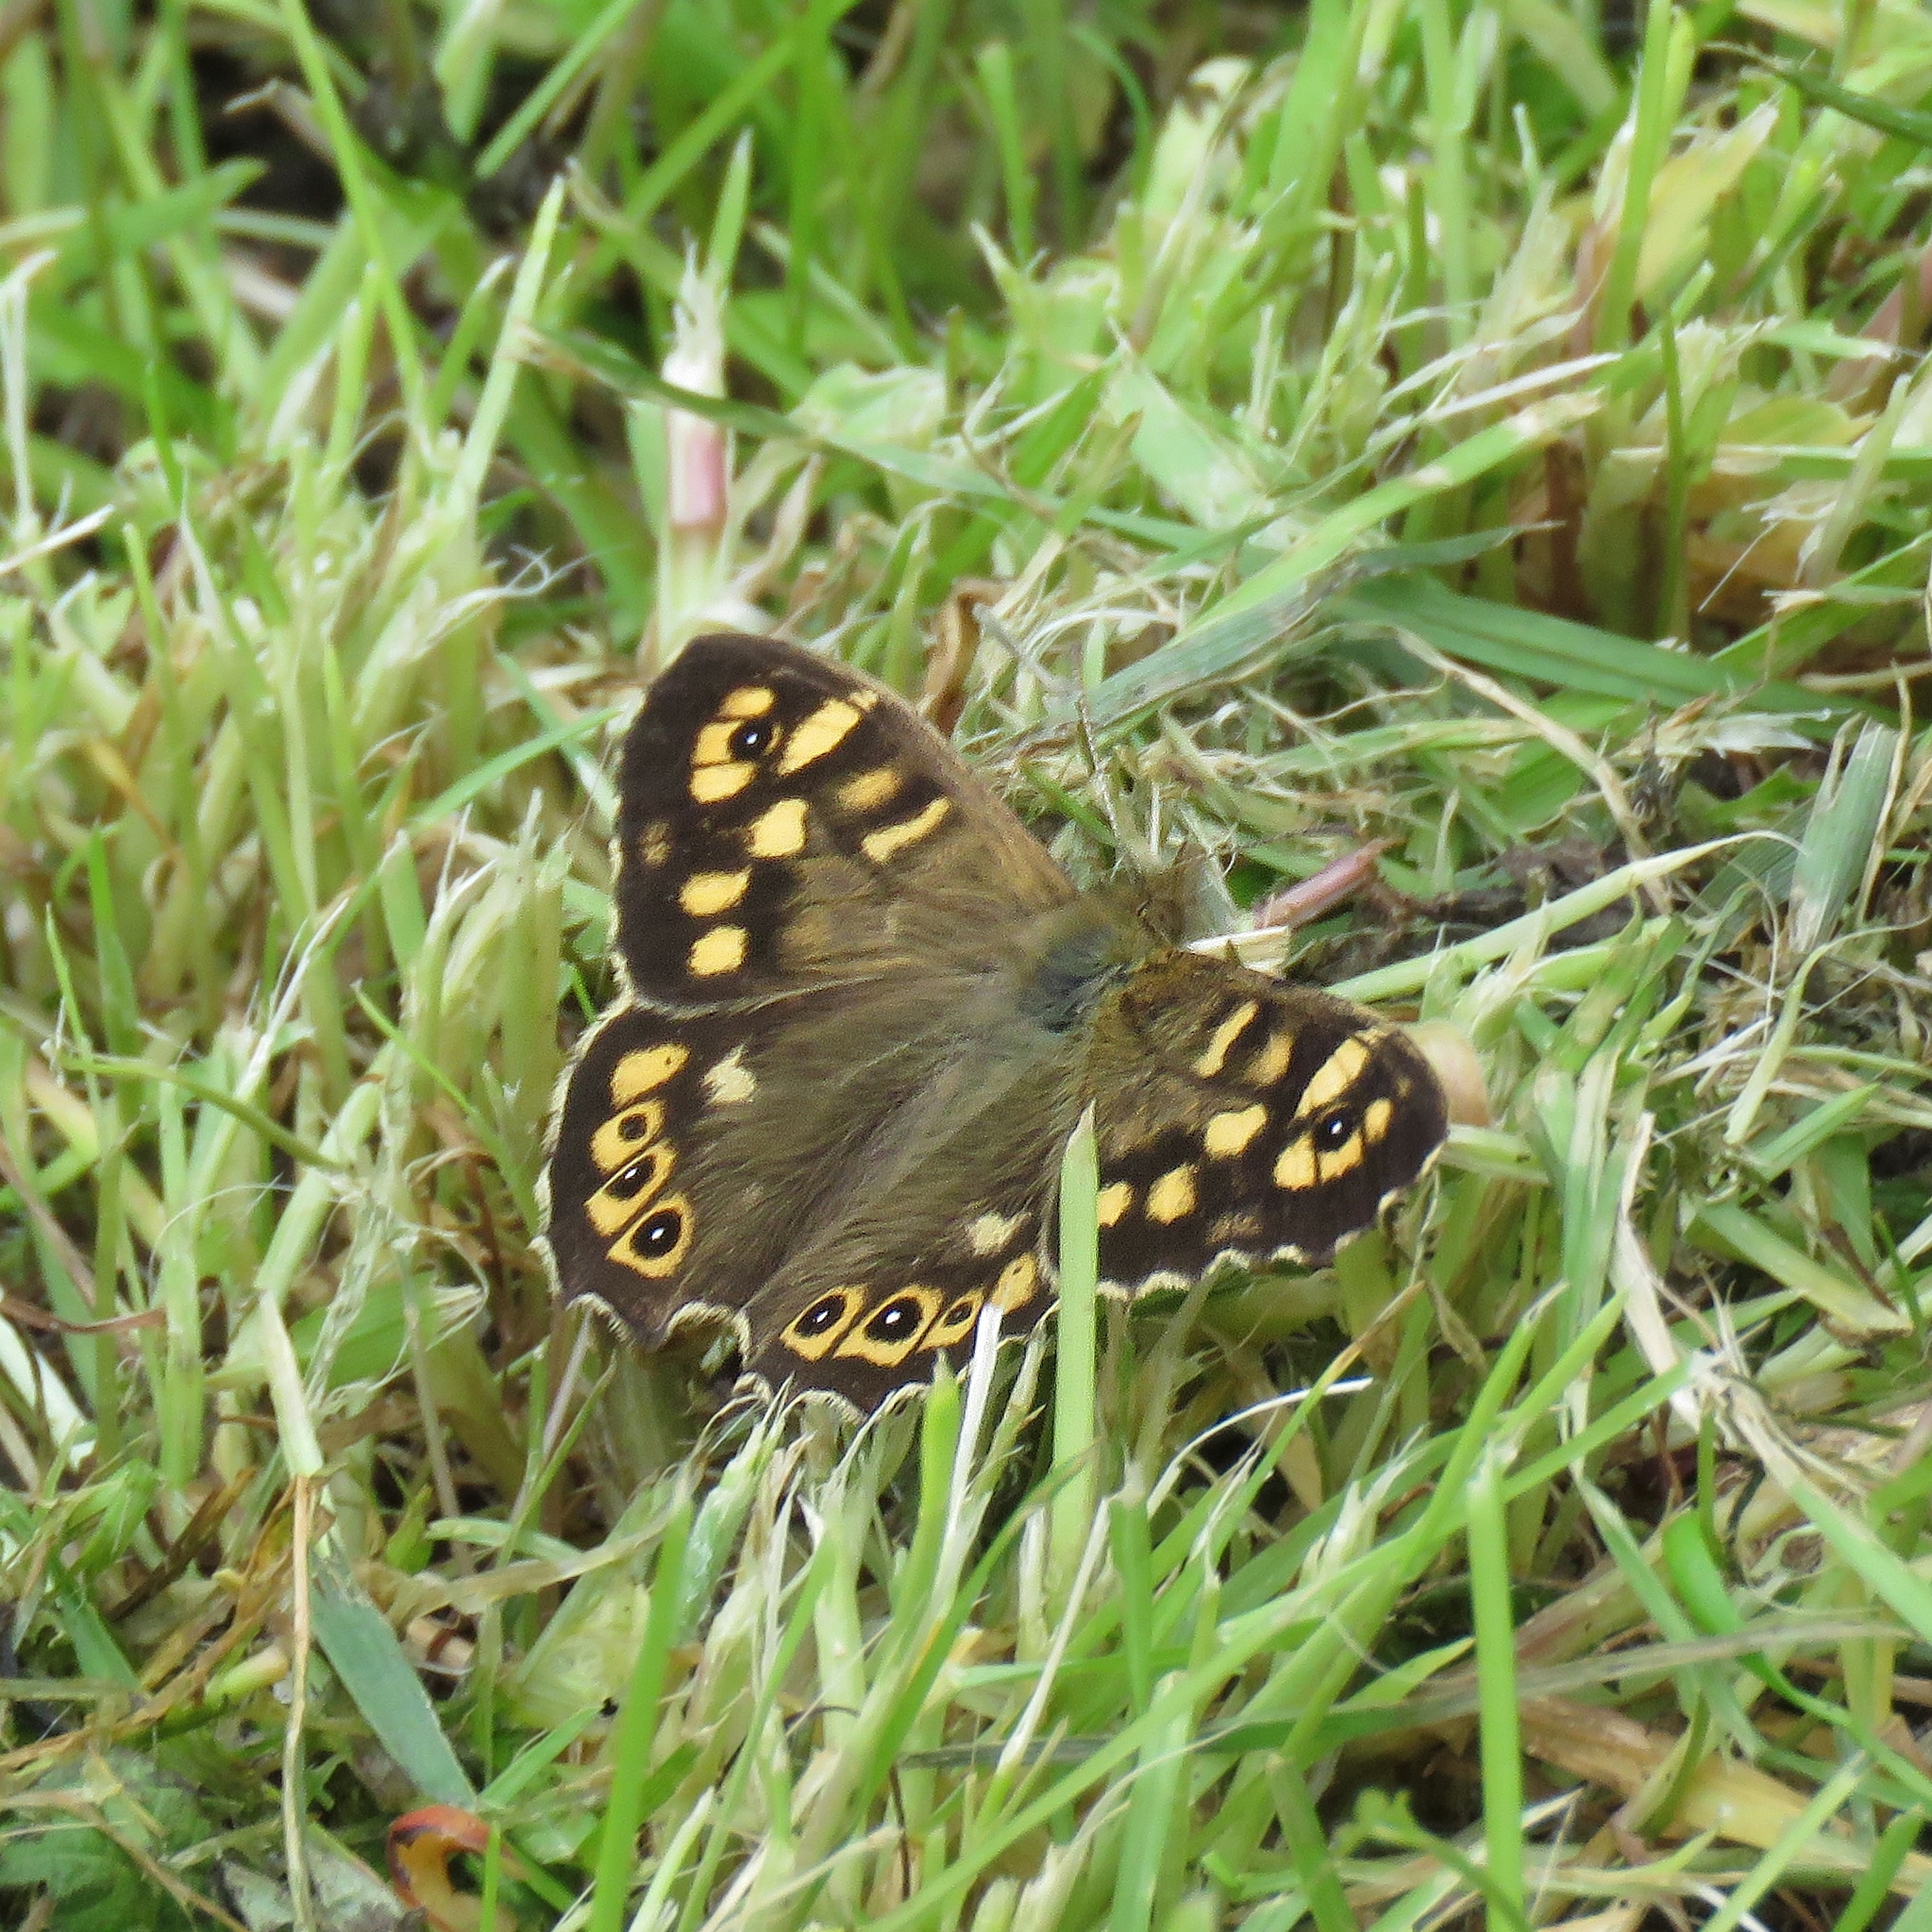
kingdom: Animalia
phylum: Arthropoda
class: Insecta
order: Lepidoptera
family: Nymphalidae
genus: Pararge
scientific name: Pararge aegeria
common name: Speckled wood
